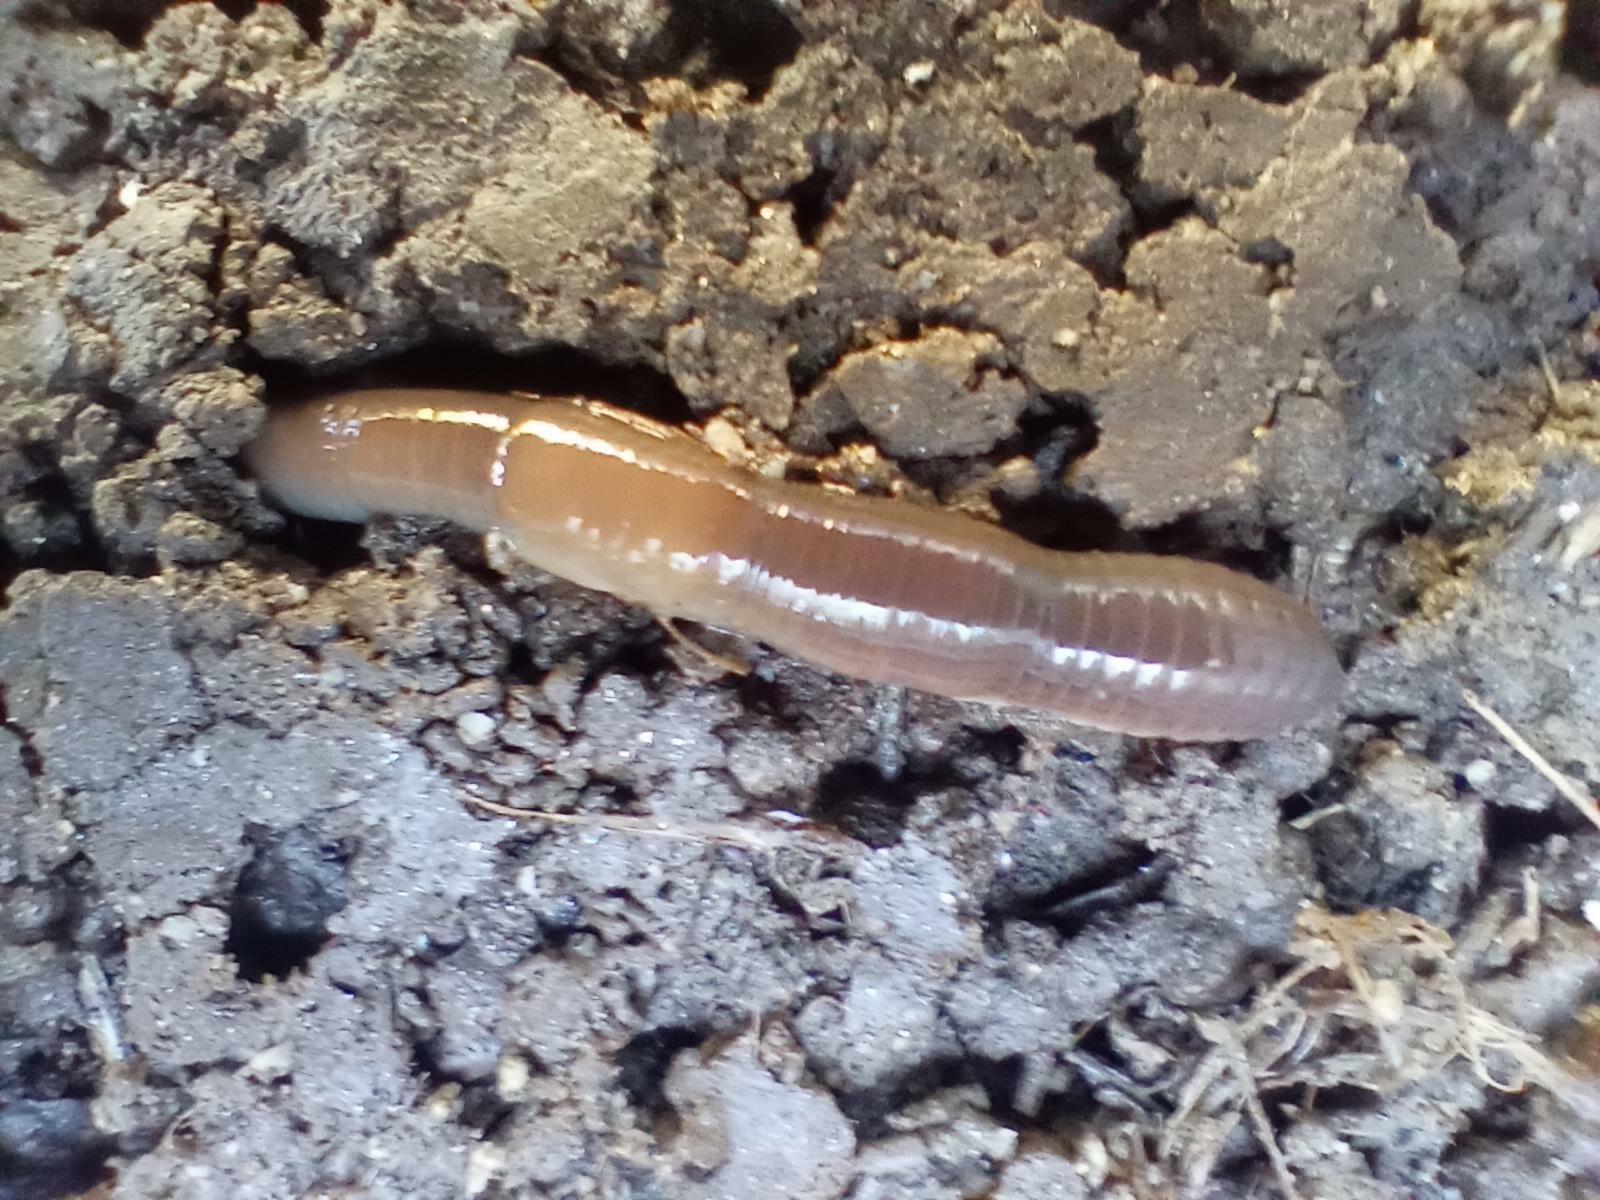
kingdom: Animalia
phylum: Annelida
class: Clitellata
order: Crassiclitellata
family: Lumbricidae
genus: Lumbricus
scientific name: Lumbricus terrestris
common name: Common earthworm
